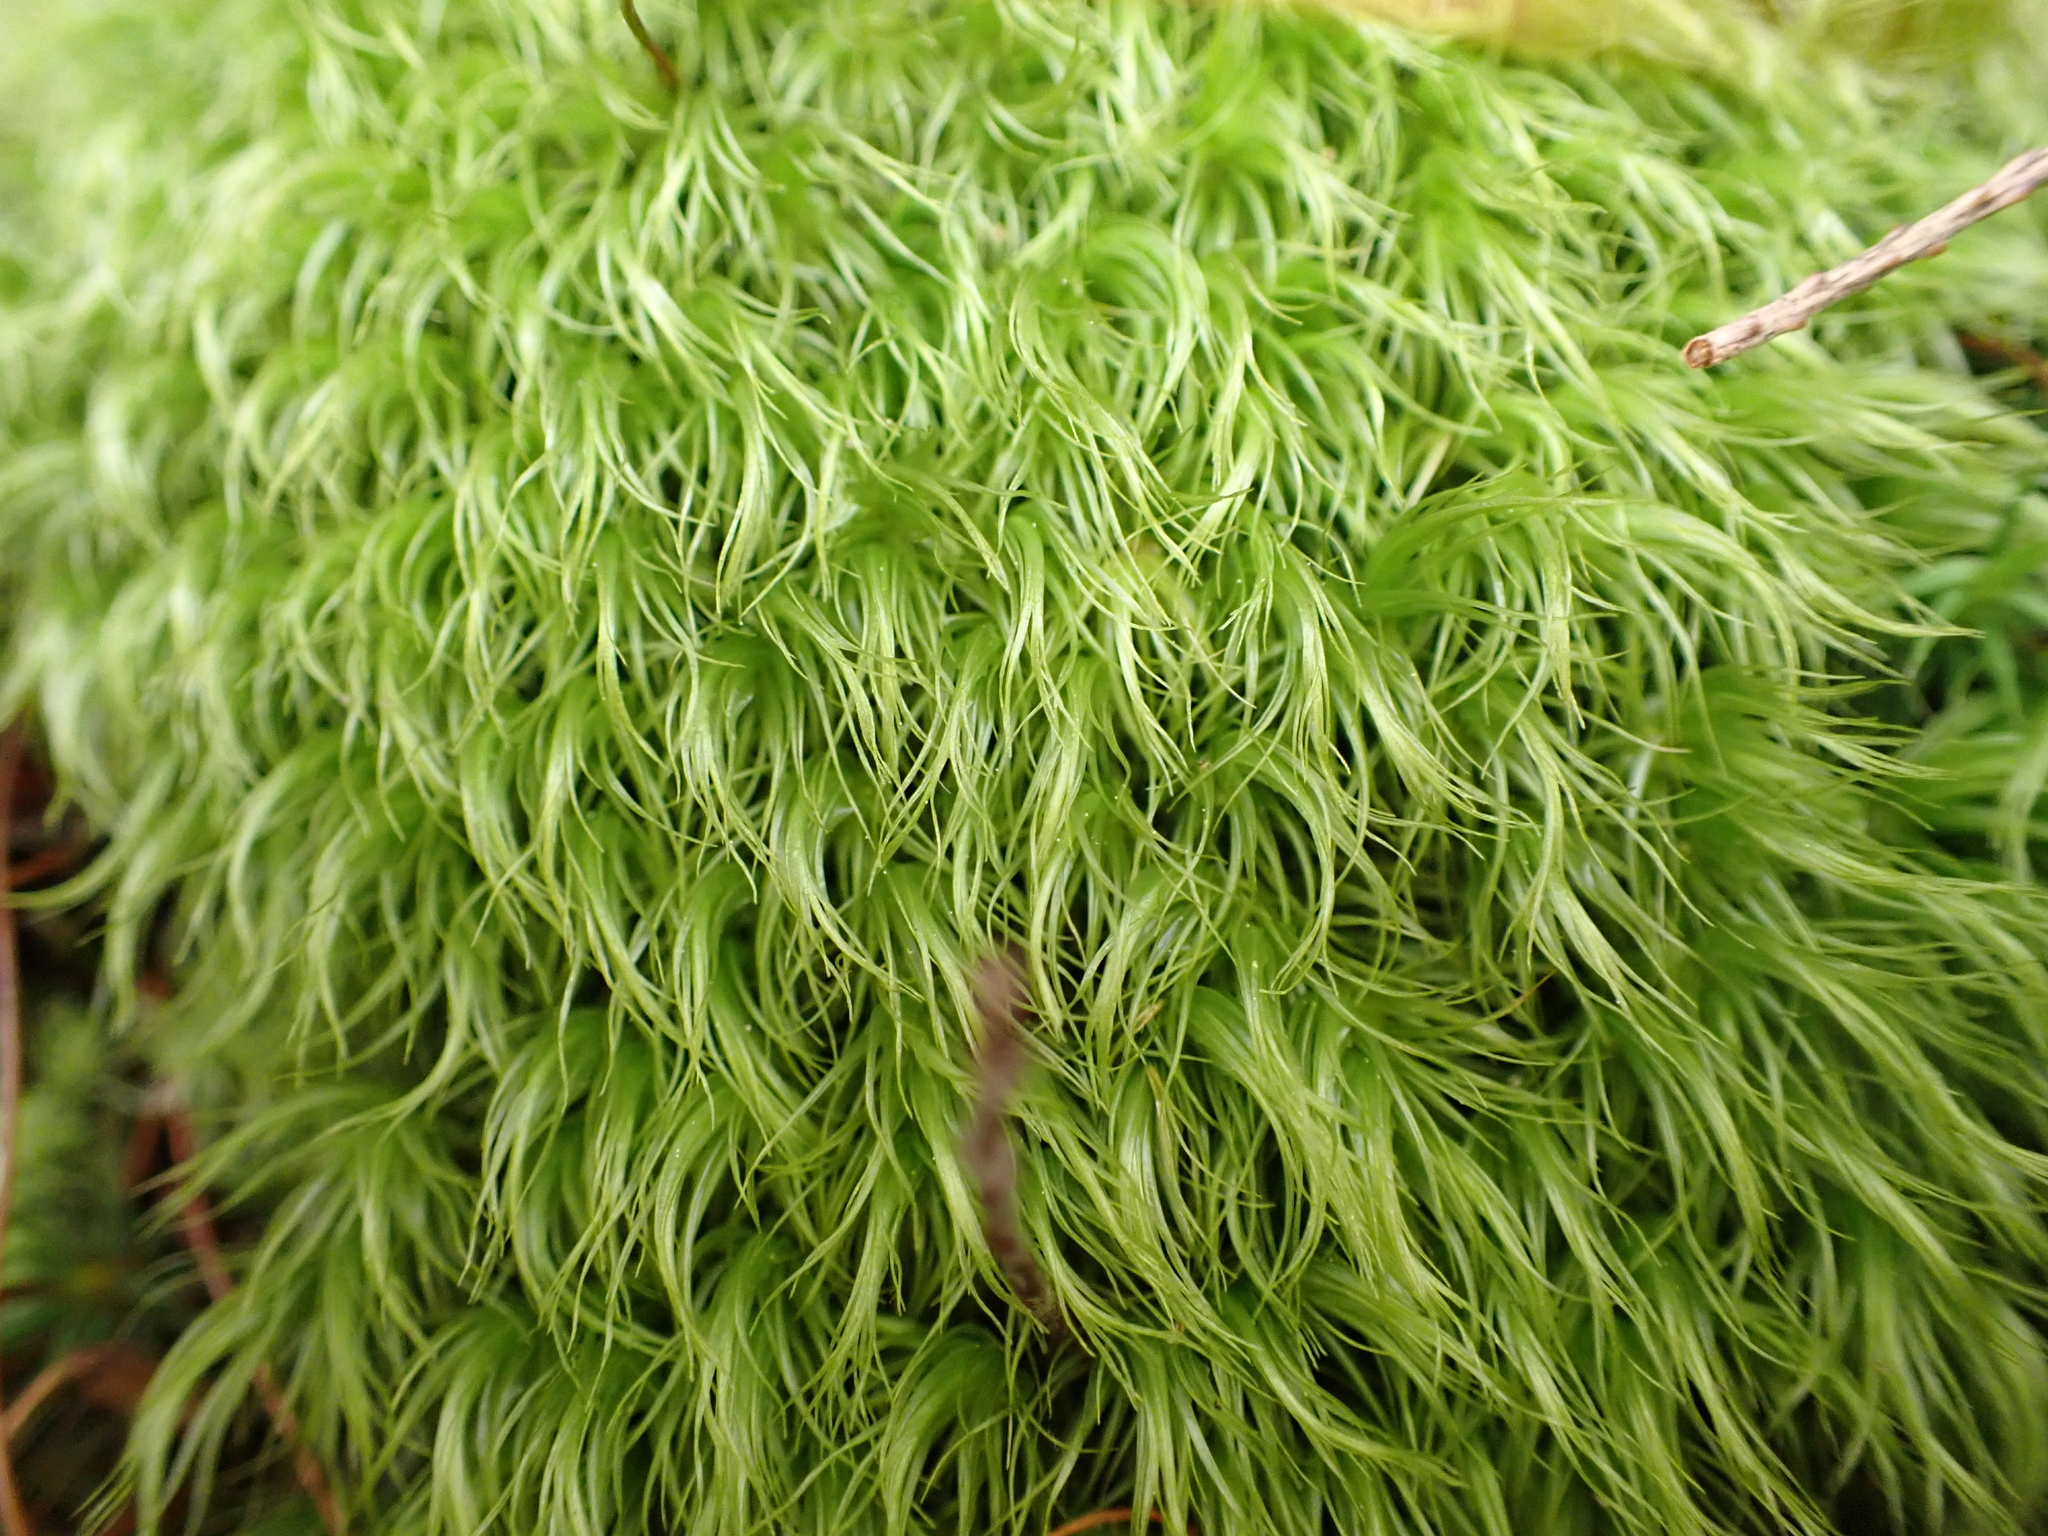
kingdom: Plantae
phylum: Bryophyta
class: Bryopsida
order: Dicranales
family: Dicranaceae
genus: Dicranum
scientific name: Dicranum scoparium
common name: Broom fork-moss
